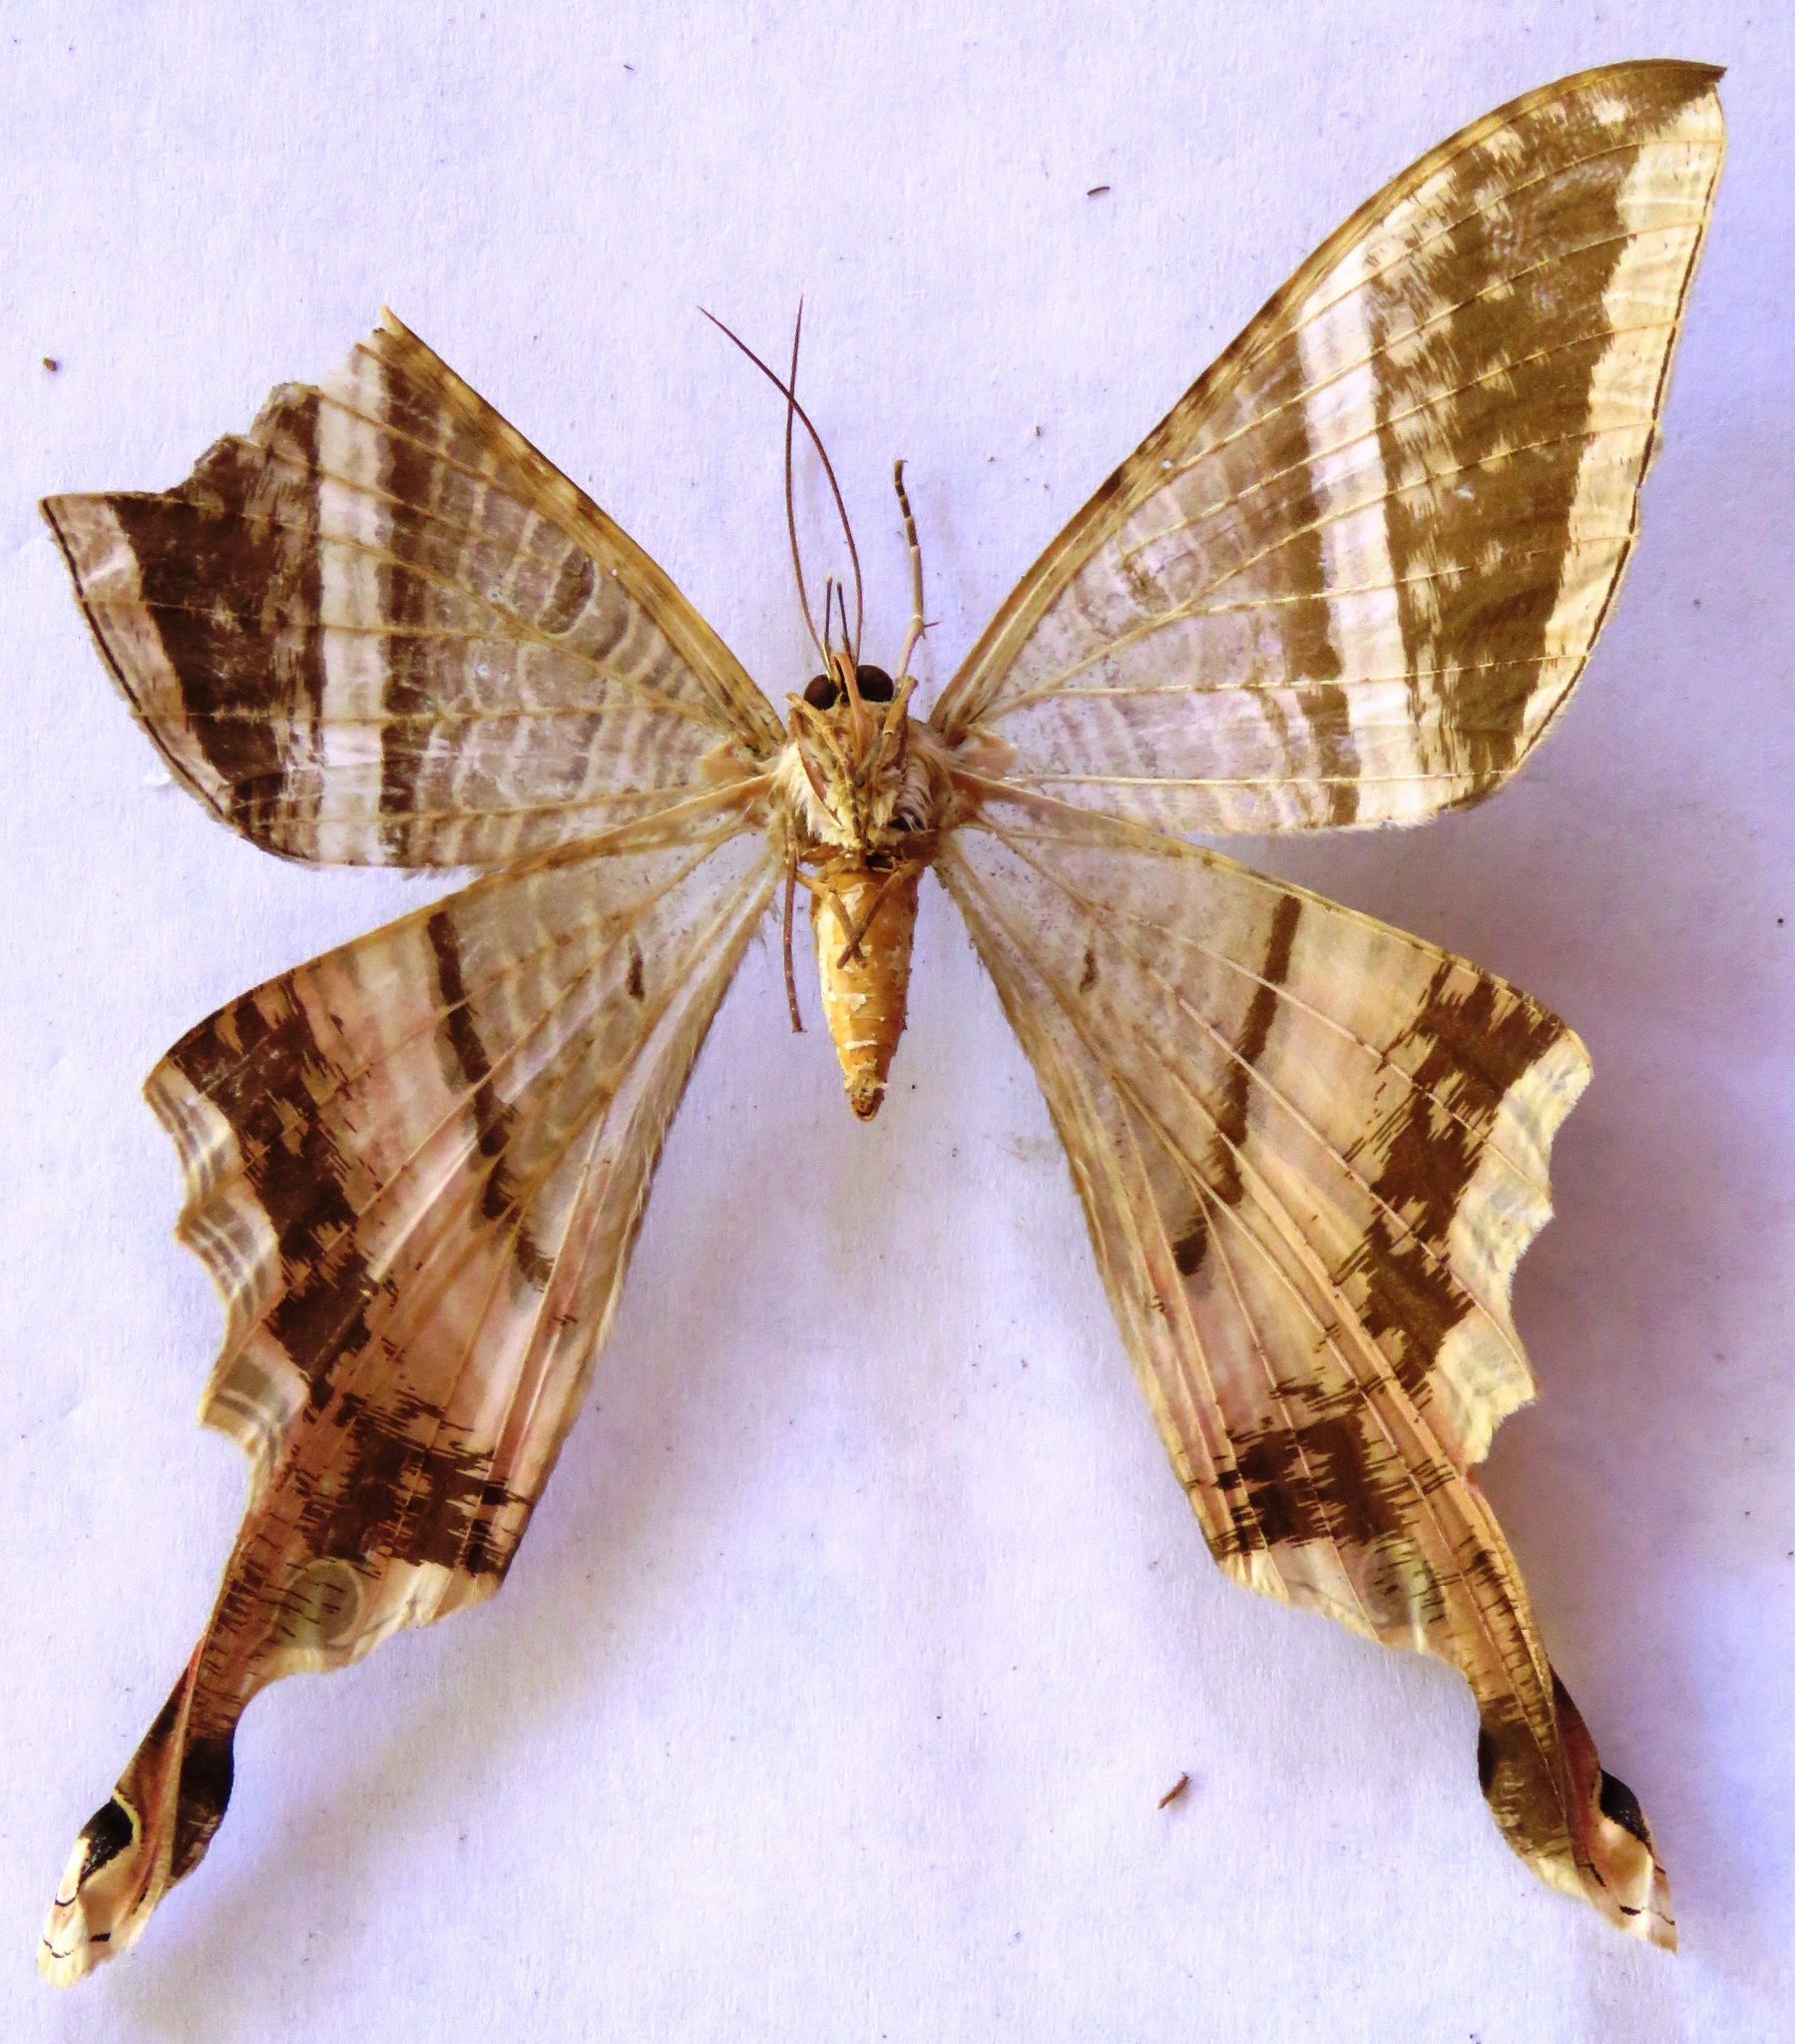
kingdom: Animalia
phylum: Arthropoda
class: Insecta
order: Lepidoptera
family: Sematuridae
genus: Nothus
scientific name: Nothus lunus
